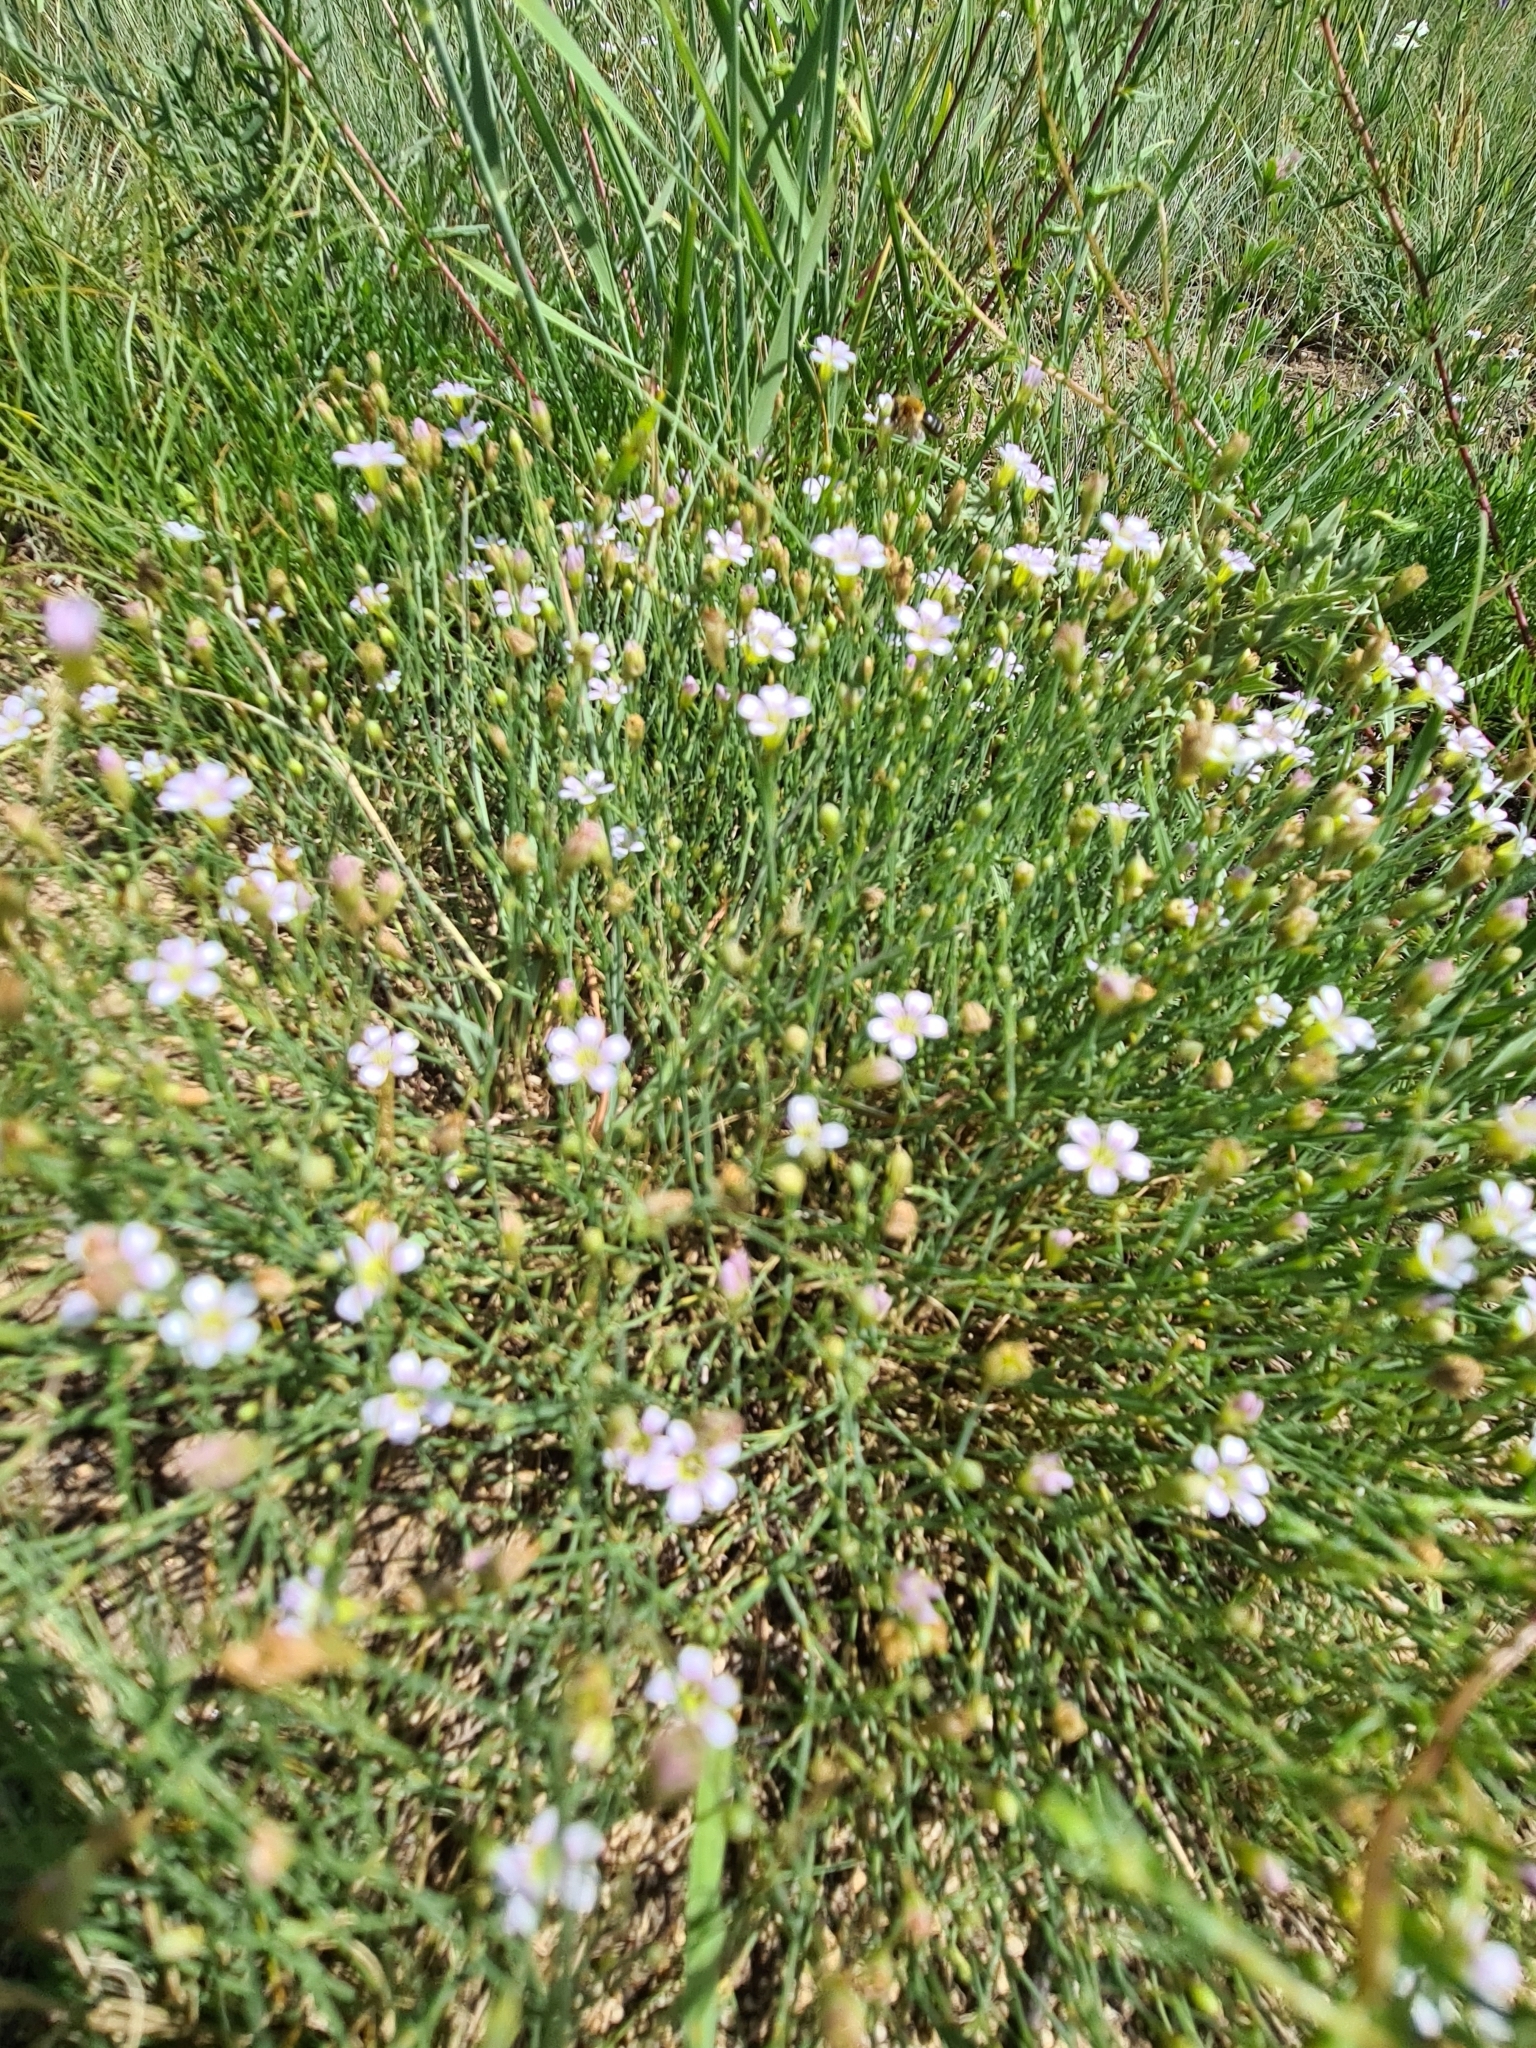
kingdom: Plantae
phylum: Tracheophyta
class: Magnoliopsida
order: Caryophyllales
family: Caryophyllaceae
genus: Petrorhagia
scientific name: Petrorhagia saxifraga
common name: Tunicflower
